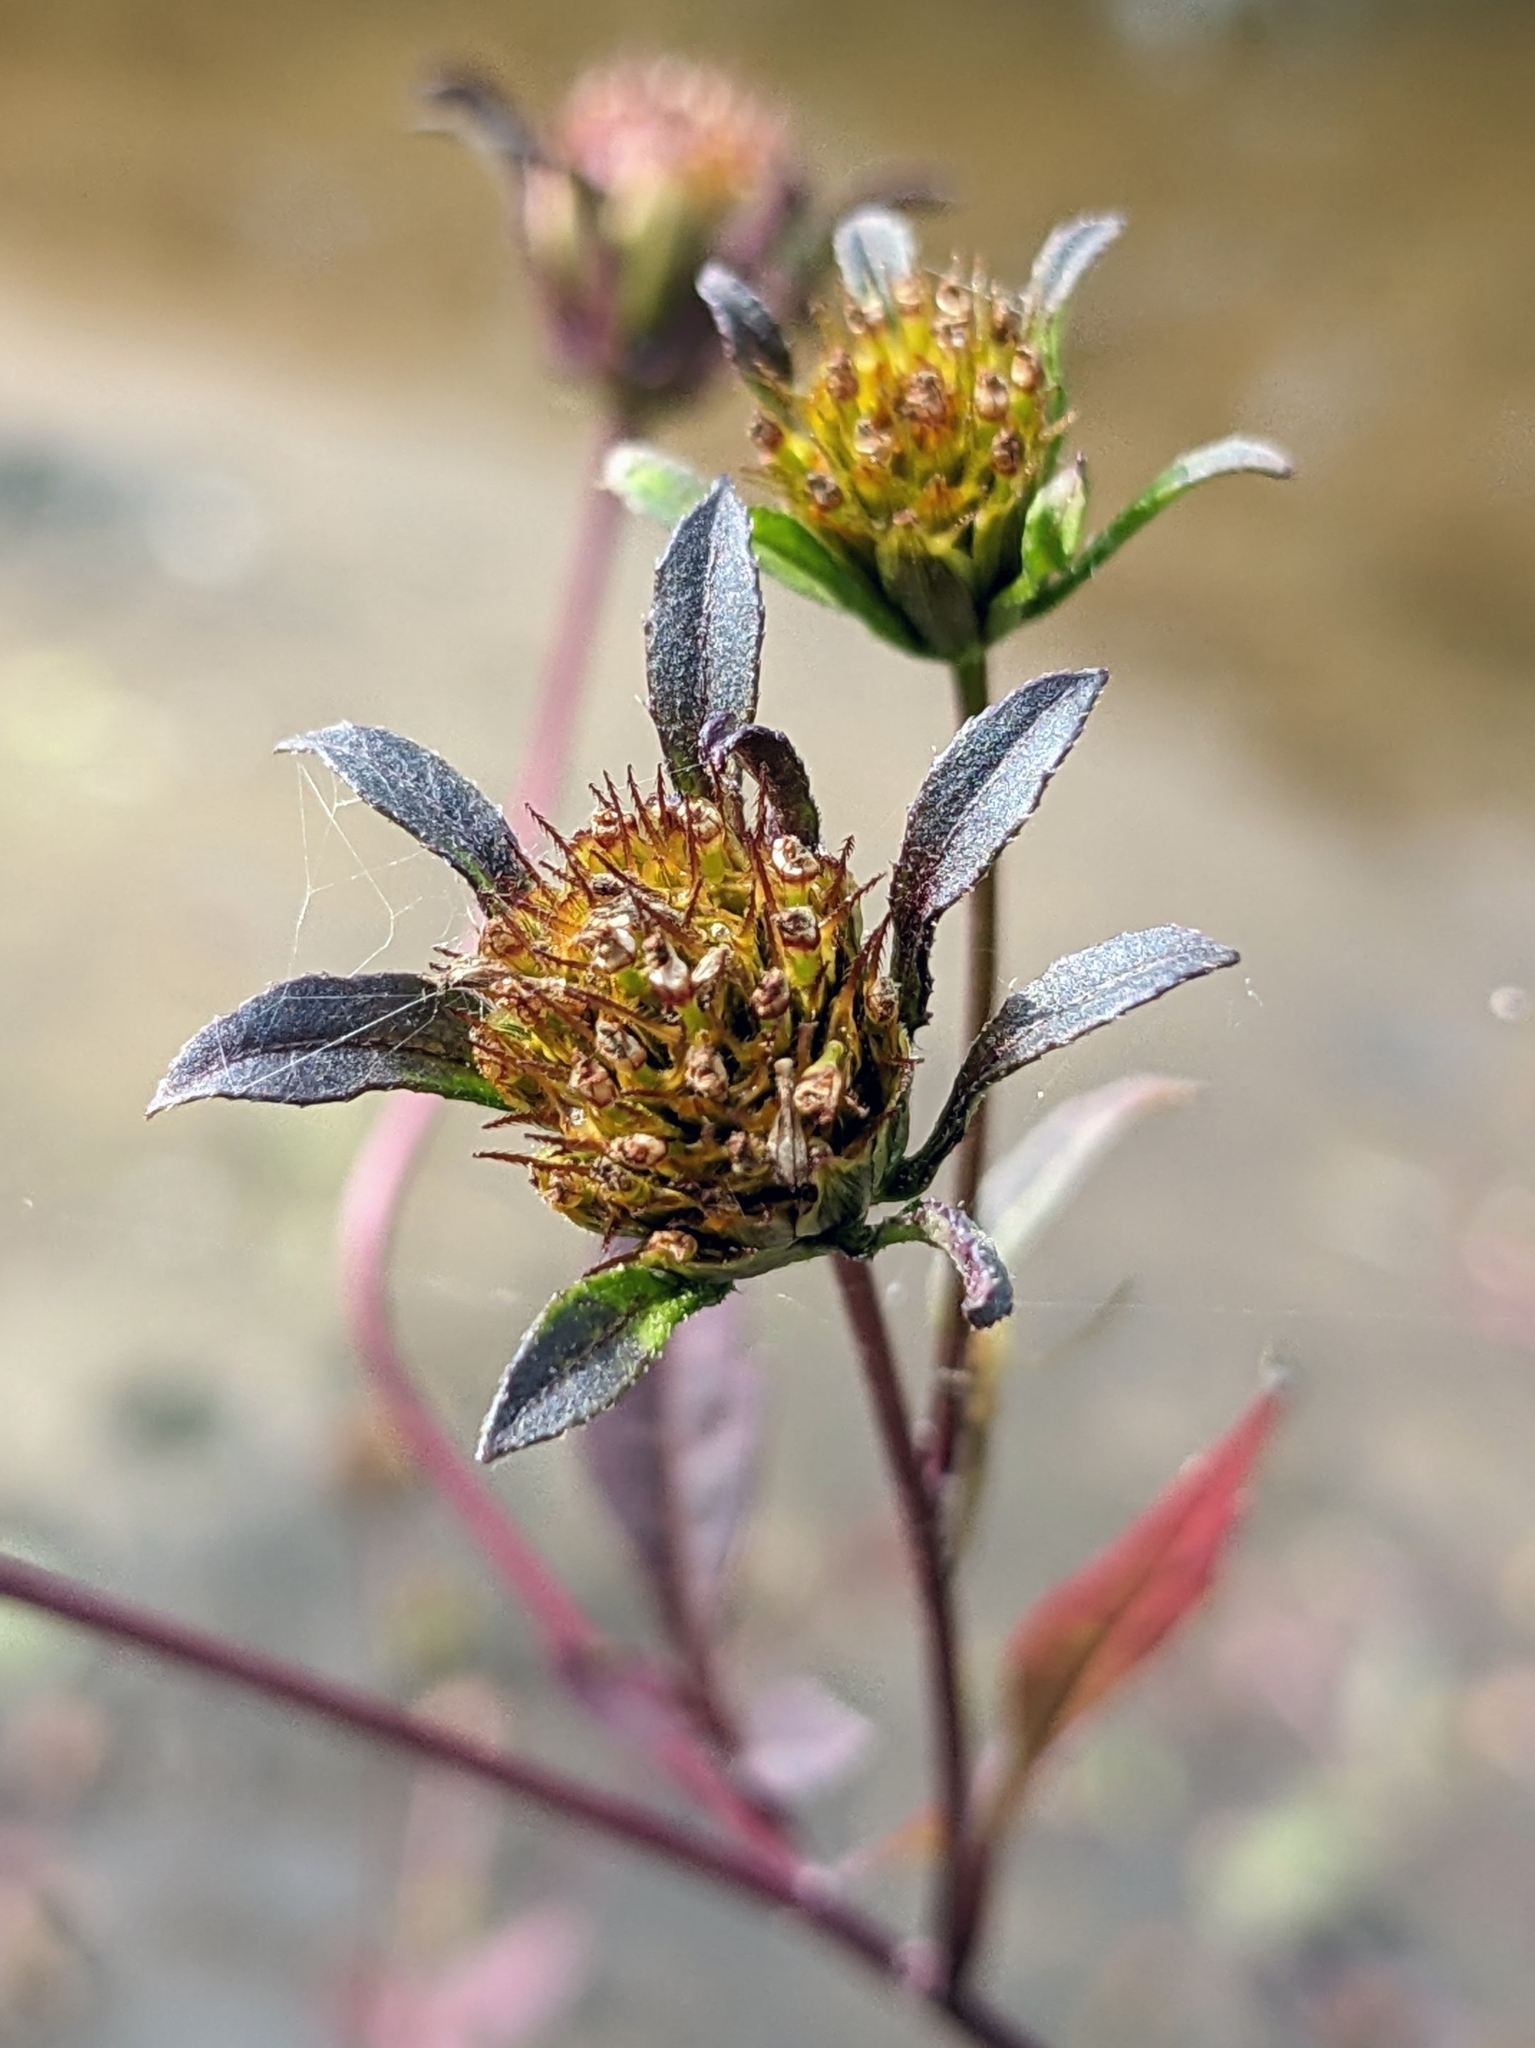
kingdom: Plantae
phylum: Tracheophyta
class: Magnoliopsida
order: Asterales
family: Asteraceae
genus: Bidens
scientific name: Bidens frondosa
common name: Beggarticks
